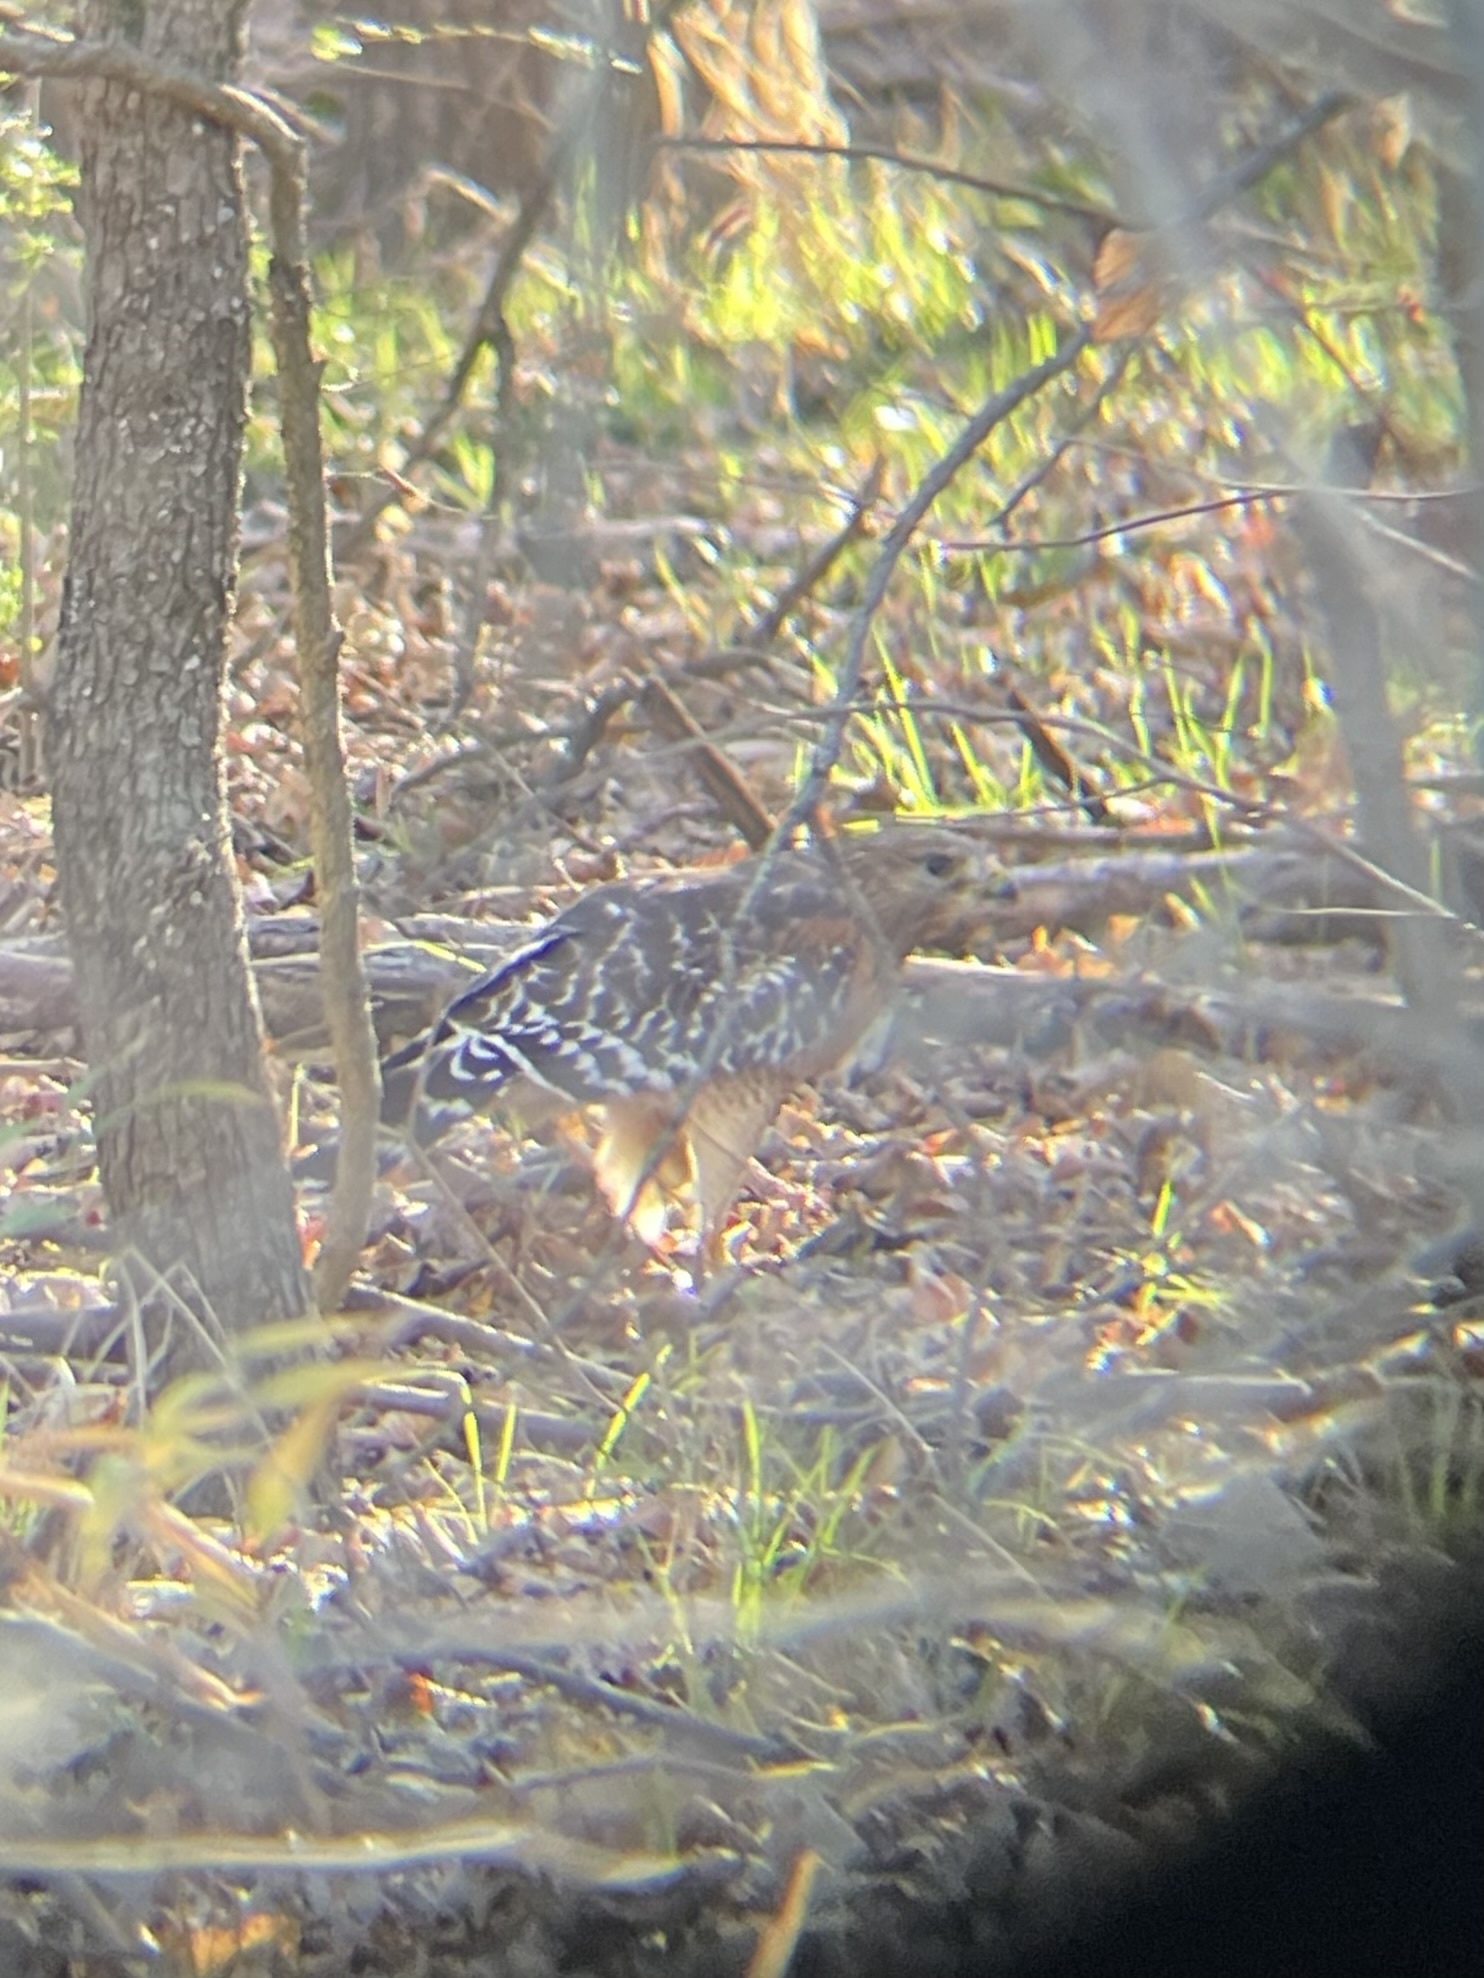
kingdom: Animalia
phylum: Chordata
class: Aves
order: Accipitriformes
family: Accipitridae
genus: Buteo
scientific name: Buteo lineatus
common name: Red-shouldered hawk
